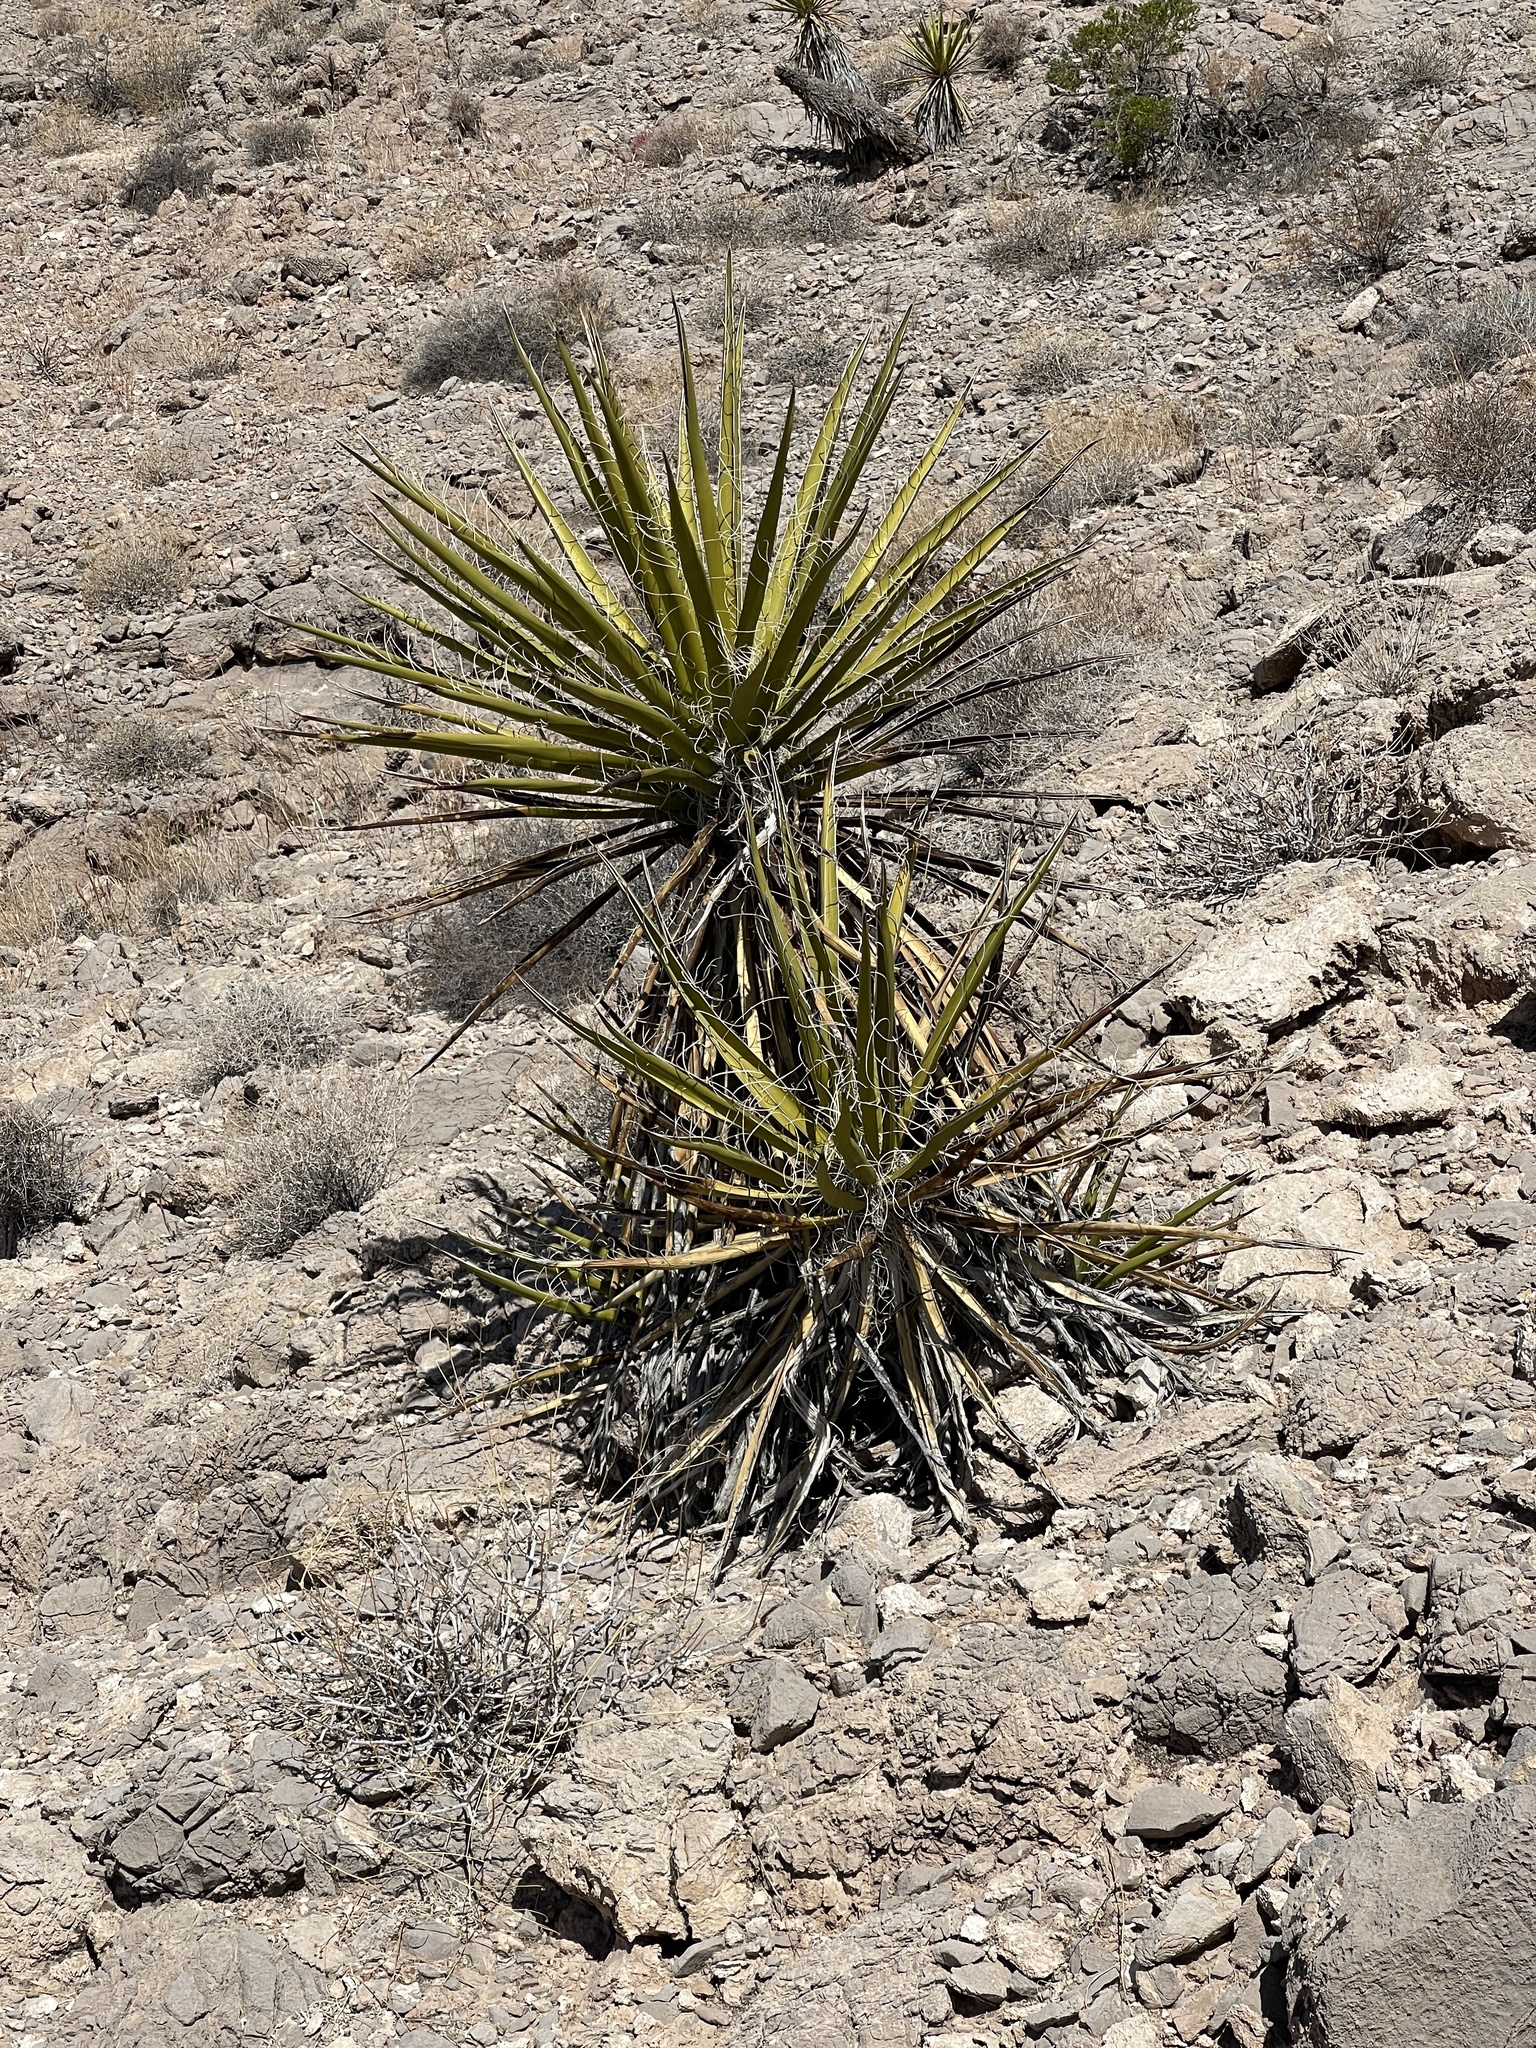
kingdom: Plantae
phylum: Tracheophyta
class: Liliopsida
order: Asparagales
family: Asparagaceae
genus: Yucca
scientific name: Yucca schidigera
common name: Mojave yucca
